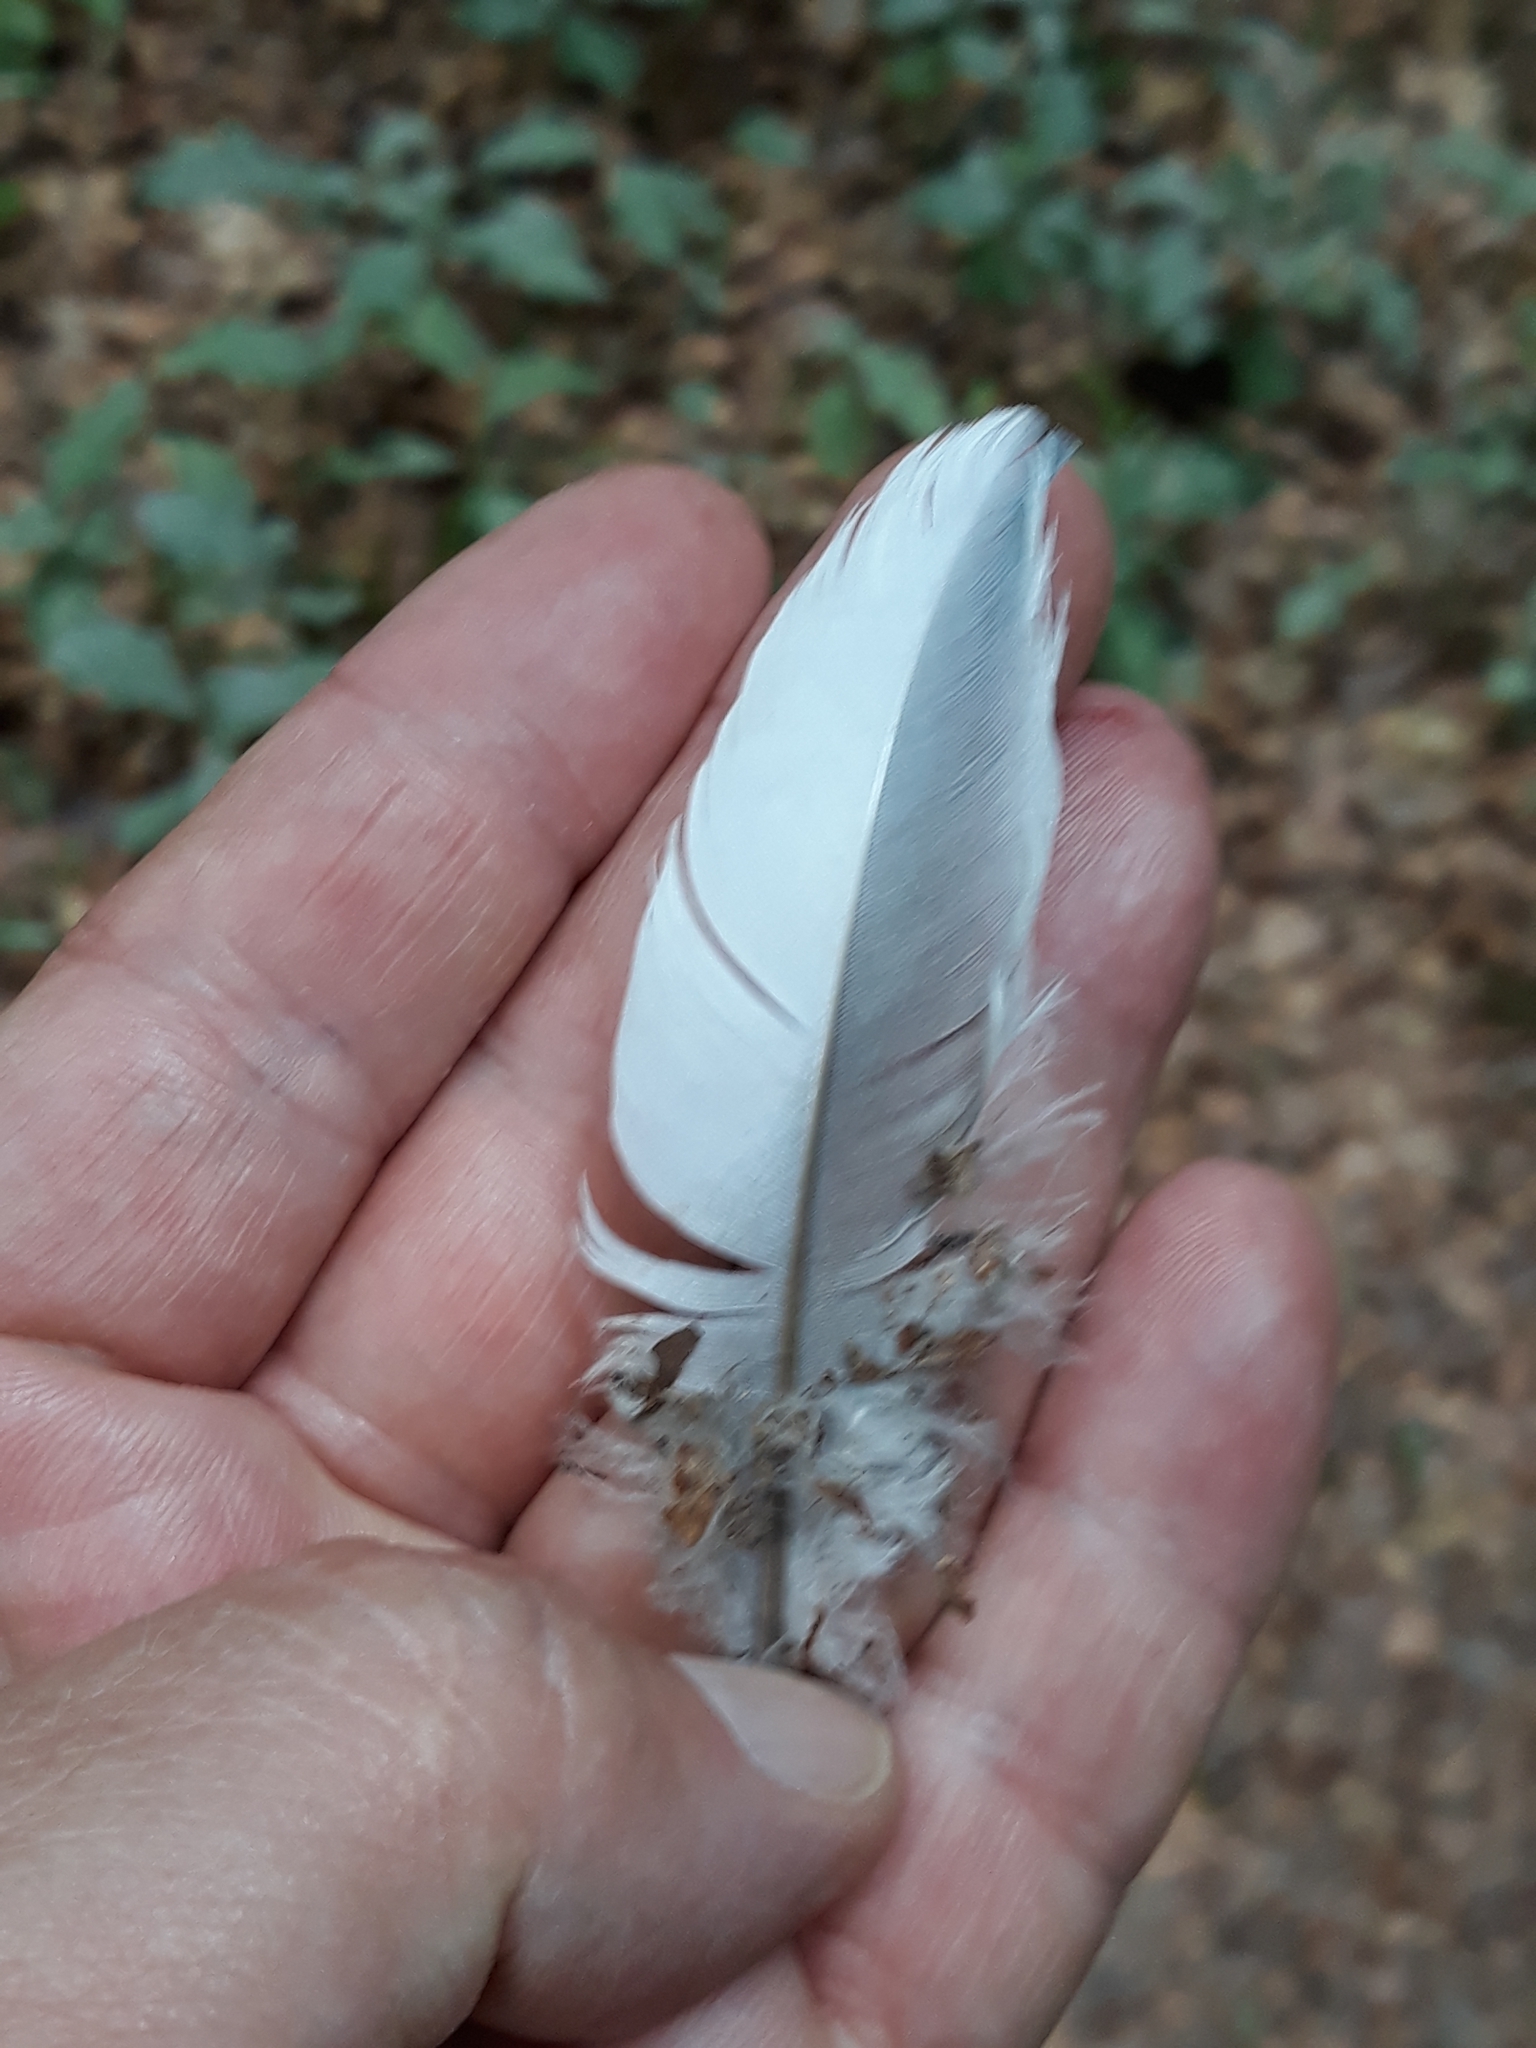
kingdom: Animalia
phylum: Chordata
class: Aves
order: Columbiformes
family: Columbidae
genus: Columba
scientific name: Columba palumbus
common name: Common wood pigeon
